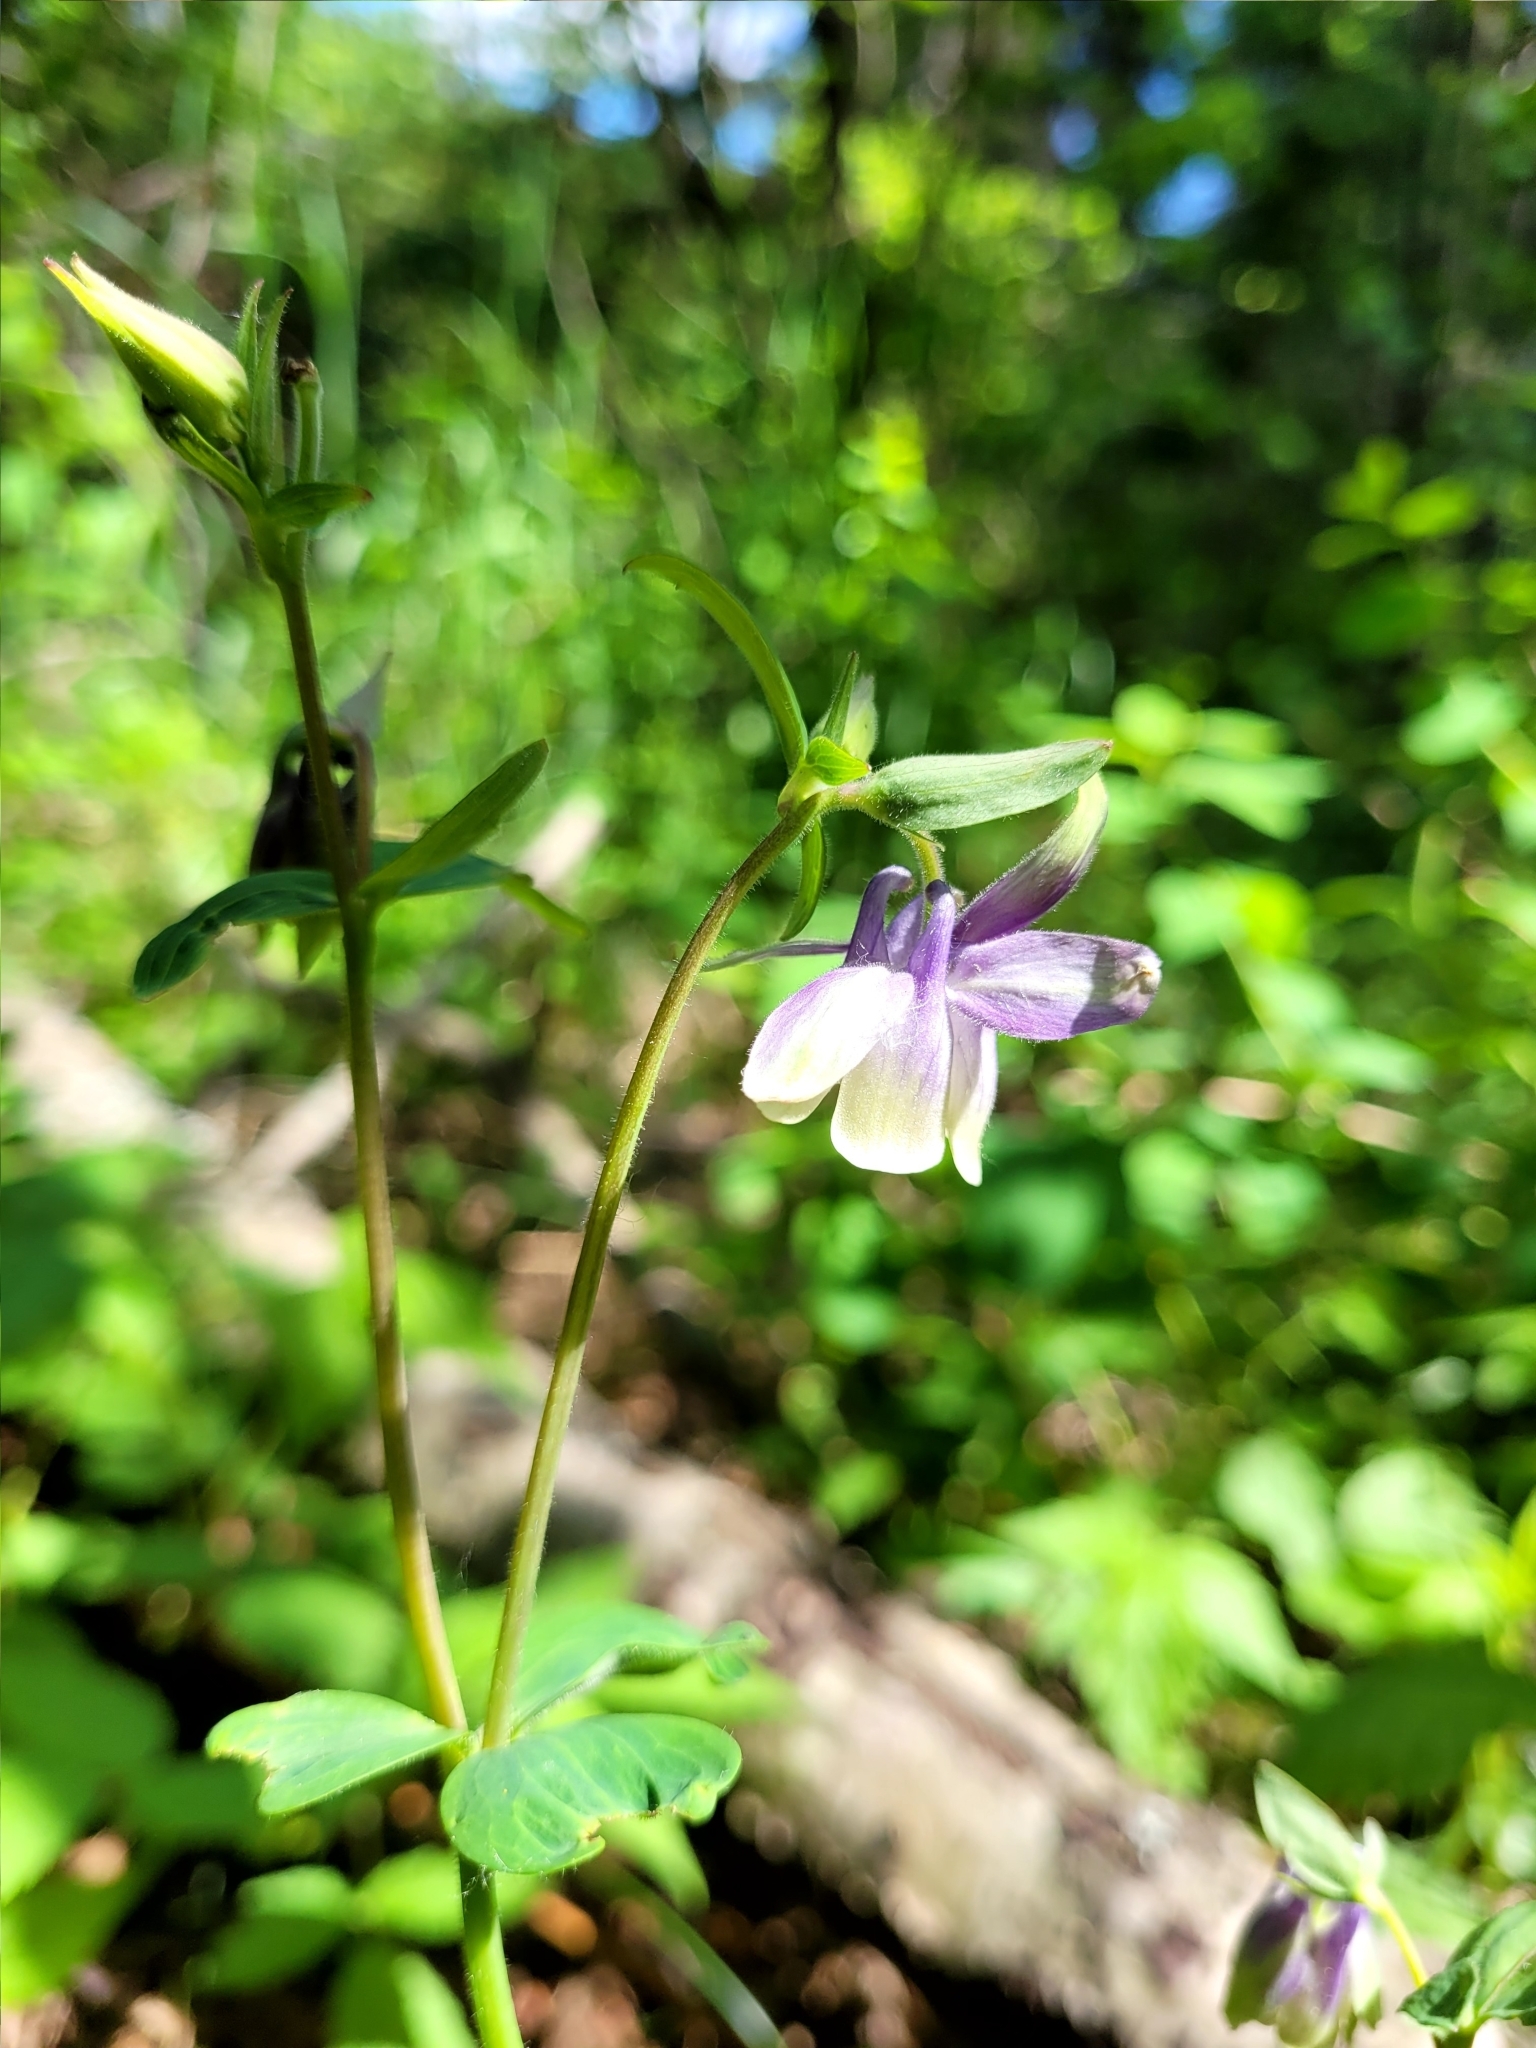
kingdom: Plantae
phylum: Tracheophyta
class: Magnoliopsida
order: Ranunculales
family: Ranunculaceae
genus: Aquilegia
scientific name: Aquilegia brevistyla
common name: Yukon columbine
